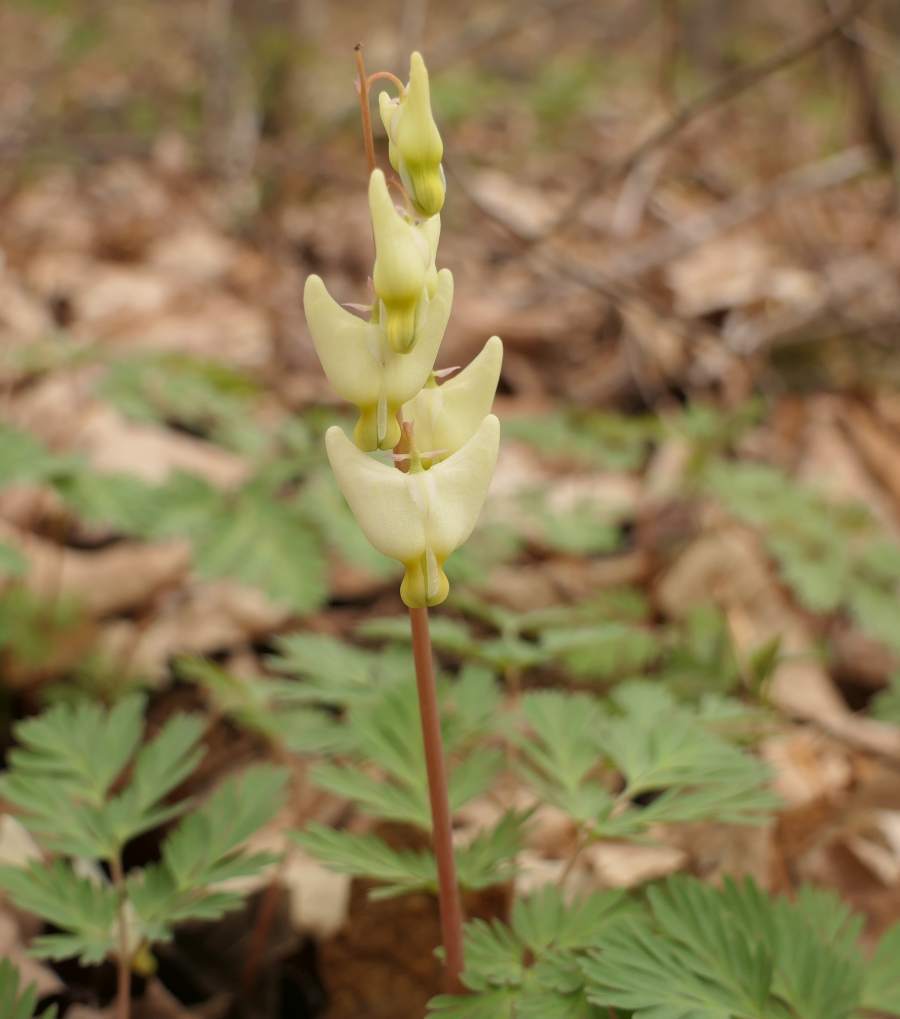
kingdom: Plantae
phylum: Tracheophyta
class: Magnoliopsida
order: Ranunculales
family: Papaveraceae
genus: Dicentra
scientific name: Dicentra cucullaria
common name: Dutchman's breeches
